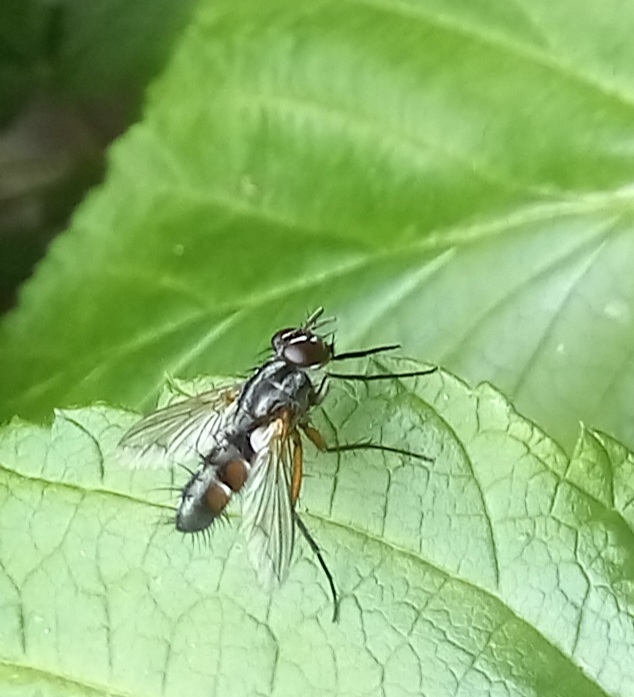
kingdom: Animalia
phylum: Arthropoda
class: Insecta
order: Diptera
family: Tachinidae
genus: Mintho
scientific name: Mintho rufiventris
